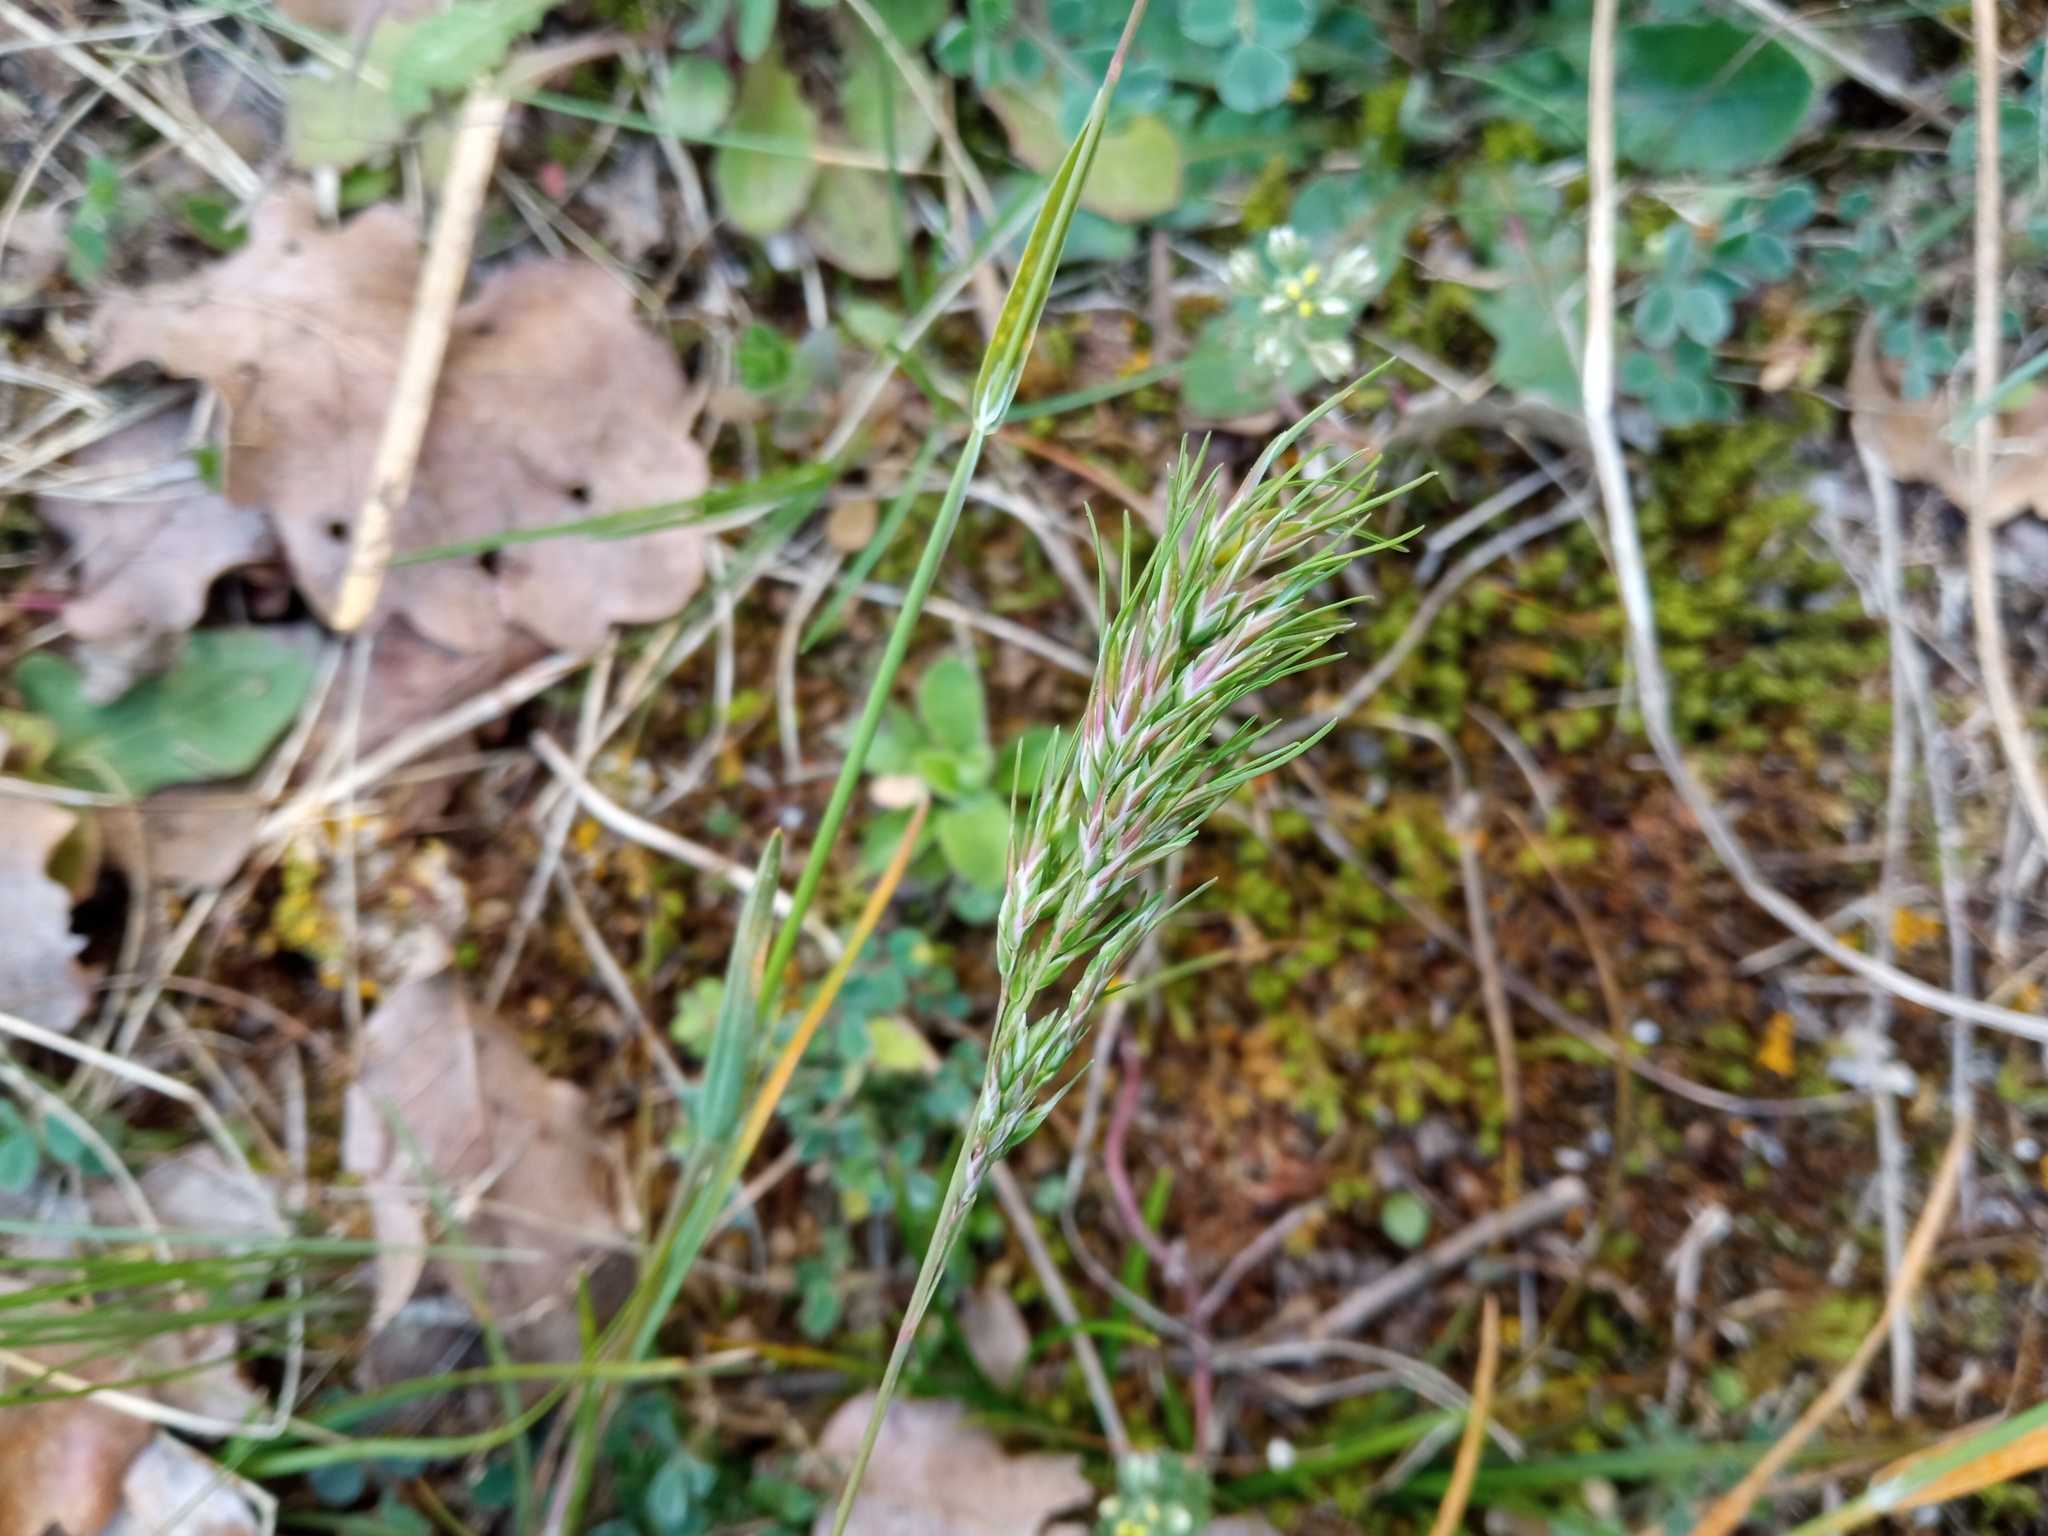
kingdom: Plantae
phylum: Tracheophyta
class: Liliopsida
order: Poales
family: Poaceae
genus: Poa
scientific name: Poa bulbosa
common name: Bulbous bluegrass
